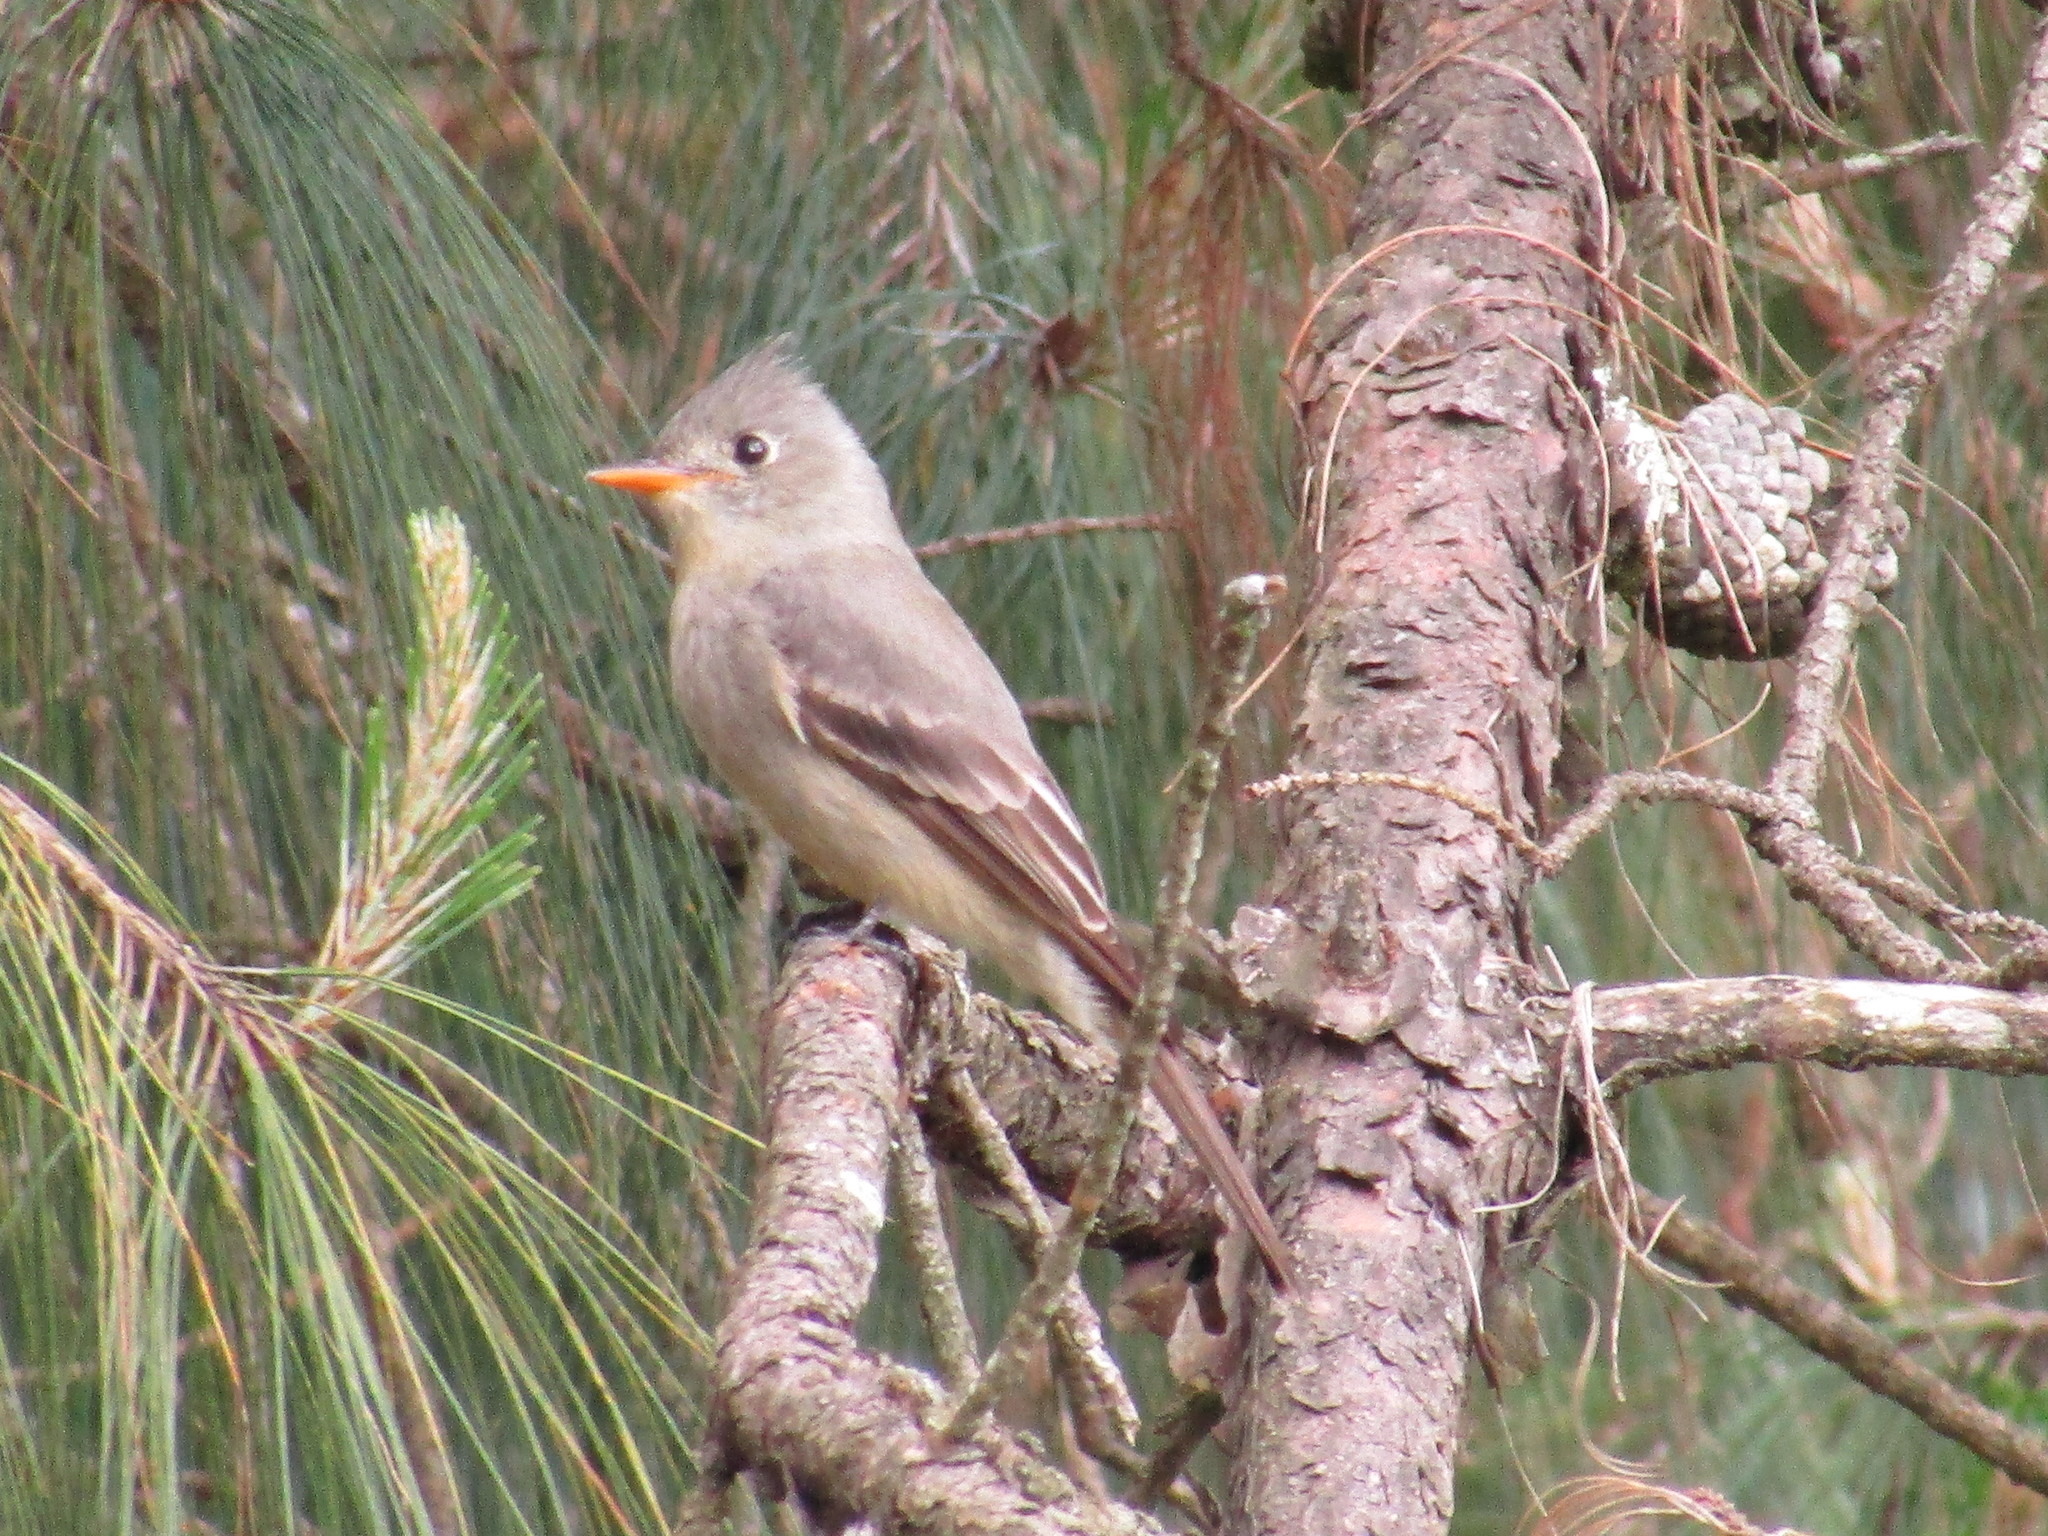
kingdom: Animalia
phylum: Chordata
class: Aves
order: Passeriformes
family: Tyrannidae
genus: Contopus
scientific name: Contopus pertinax
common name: Greater pewee
